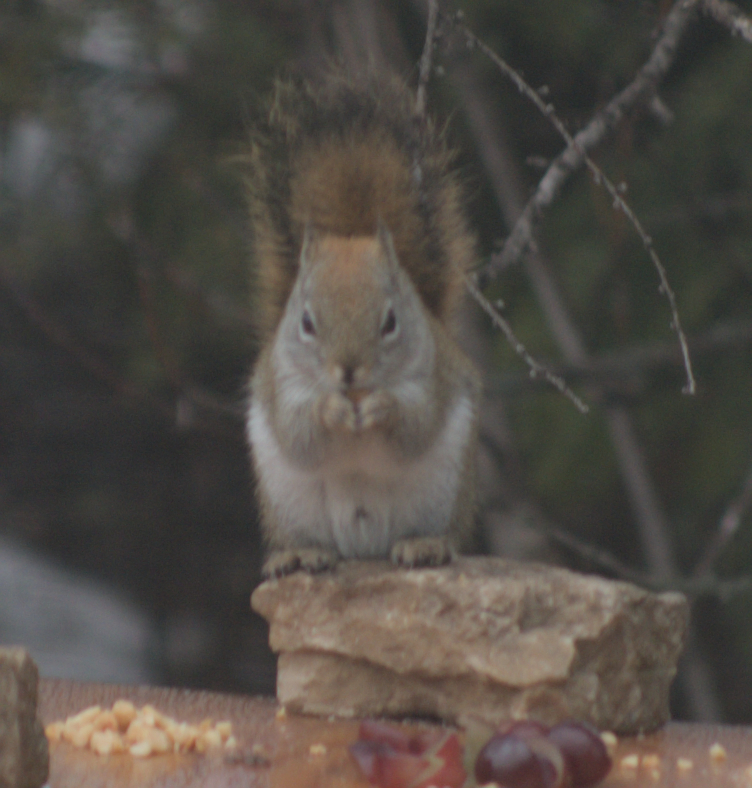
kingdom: Animalia
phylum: Chordata
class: Mammalia
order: Rodentia
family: Sciuridae
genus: Tamiasciurus
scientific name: Tamiasciurus hudsonicus
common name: Red squirrel
